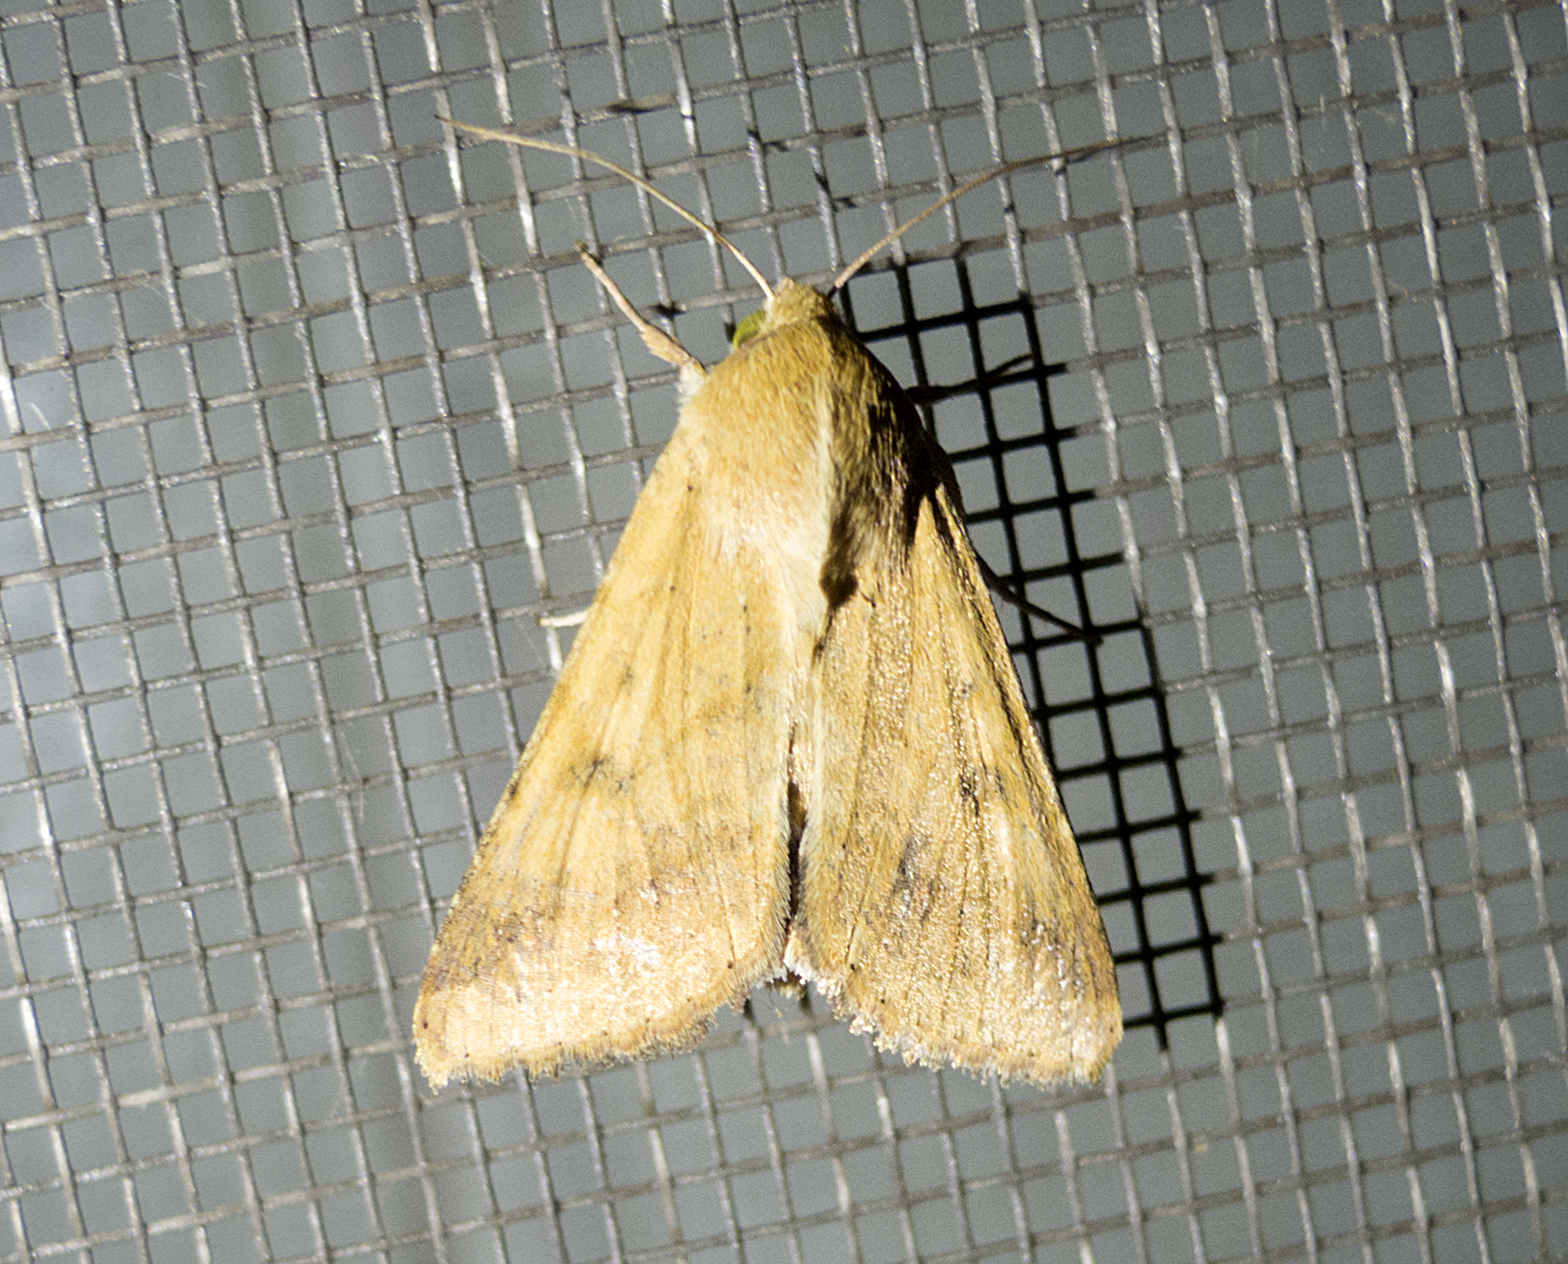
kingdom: Animalia
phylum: Arthropoda
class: Insecta
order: Lepidoptera
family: Noctuidae
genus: Helicoverpa
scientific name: Helicoverpa armigera
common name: Cotton bollworm
